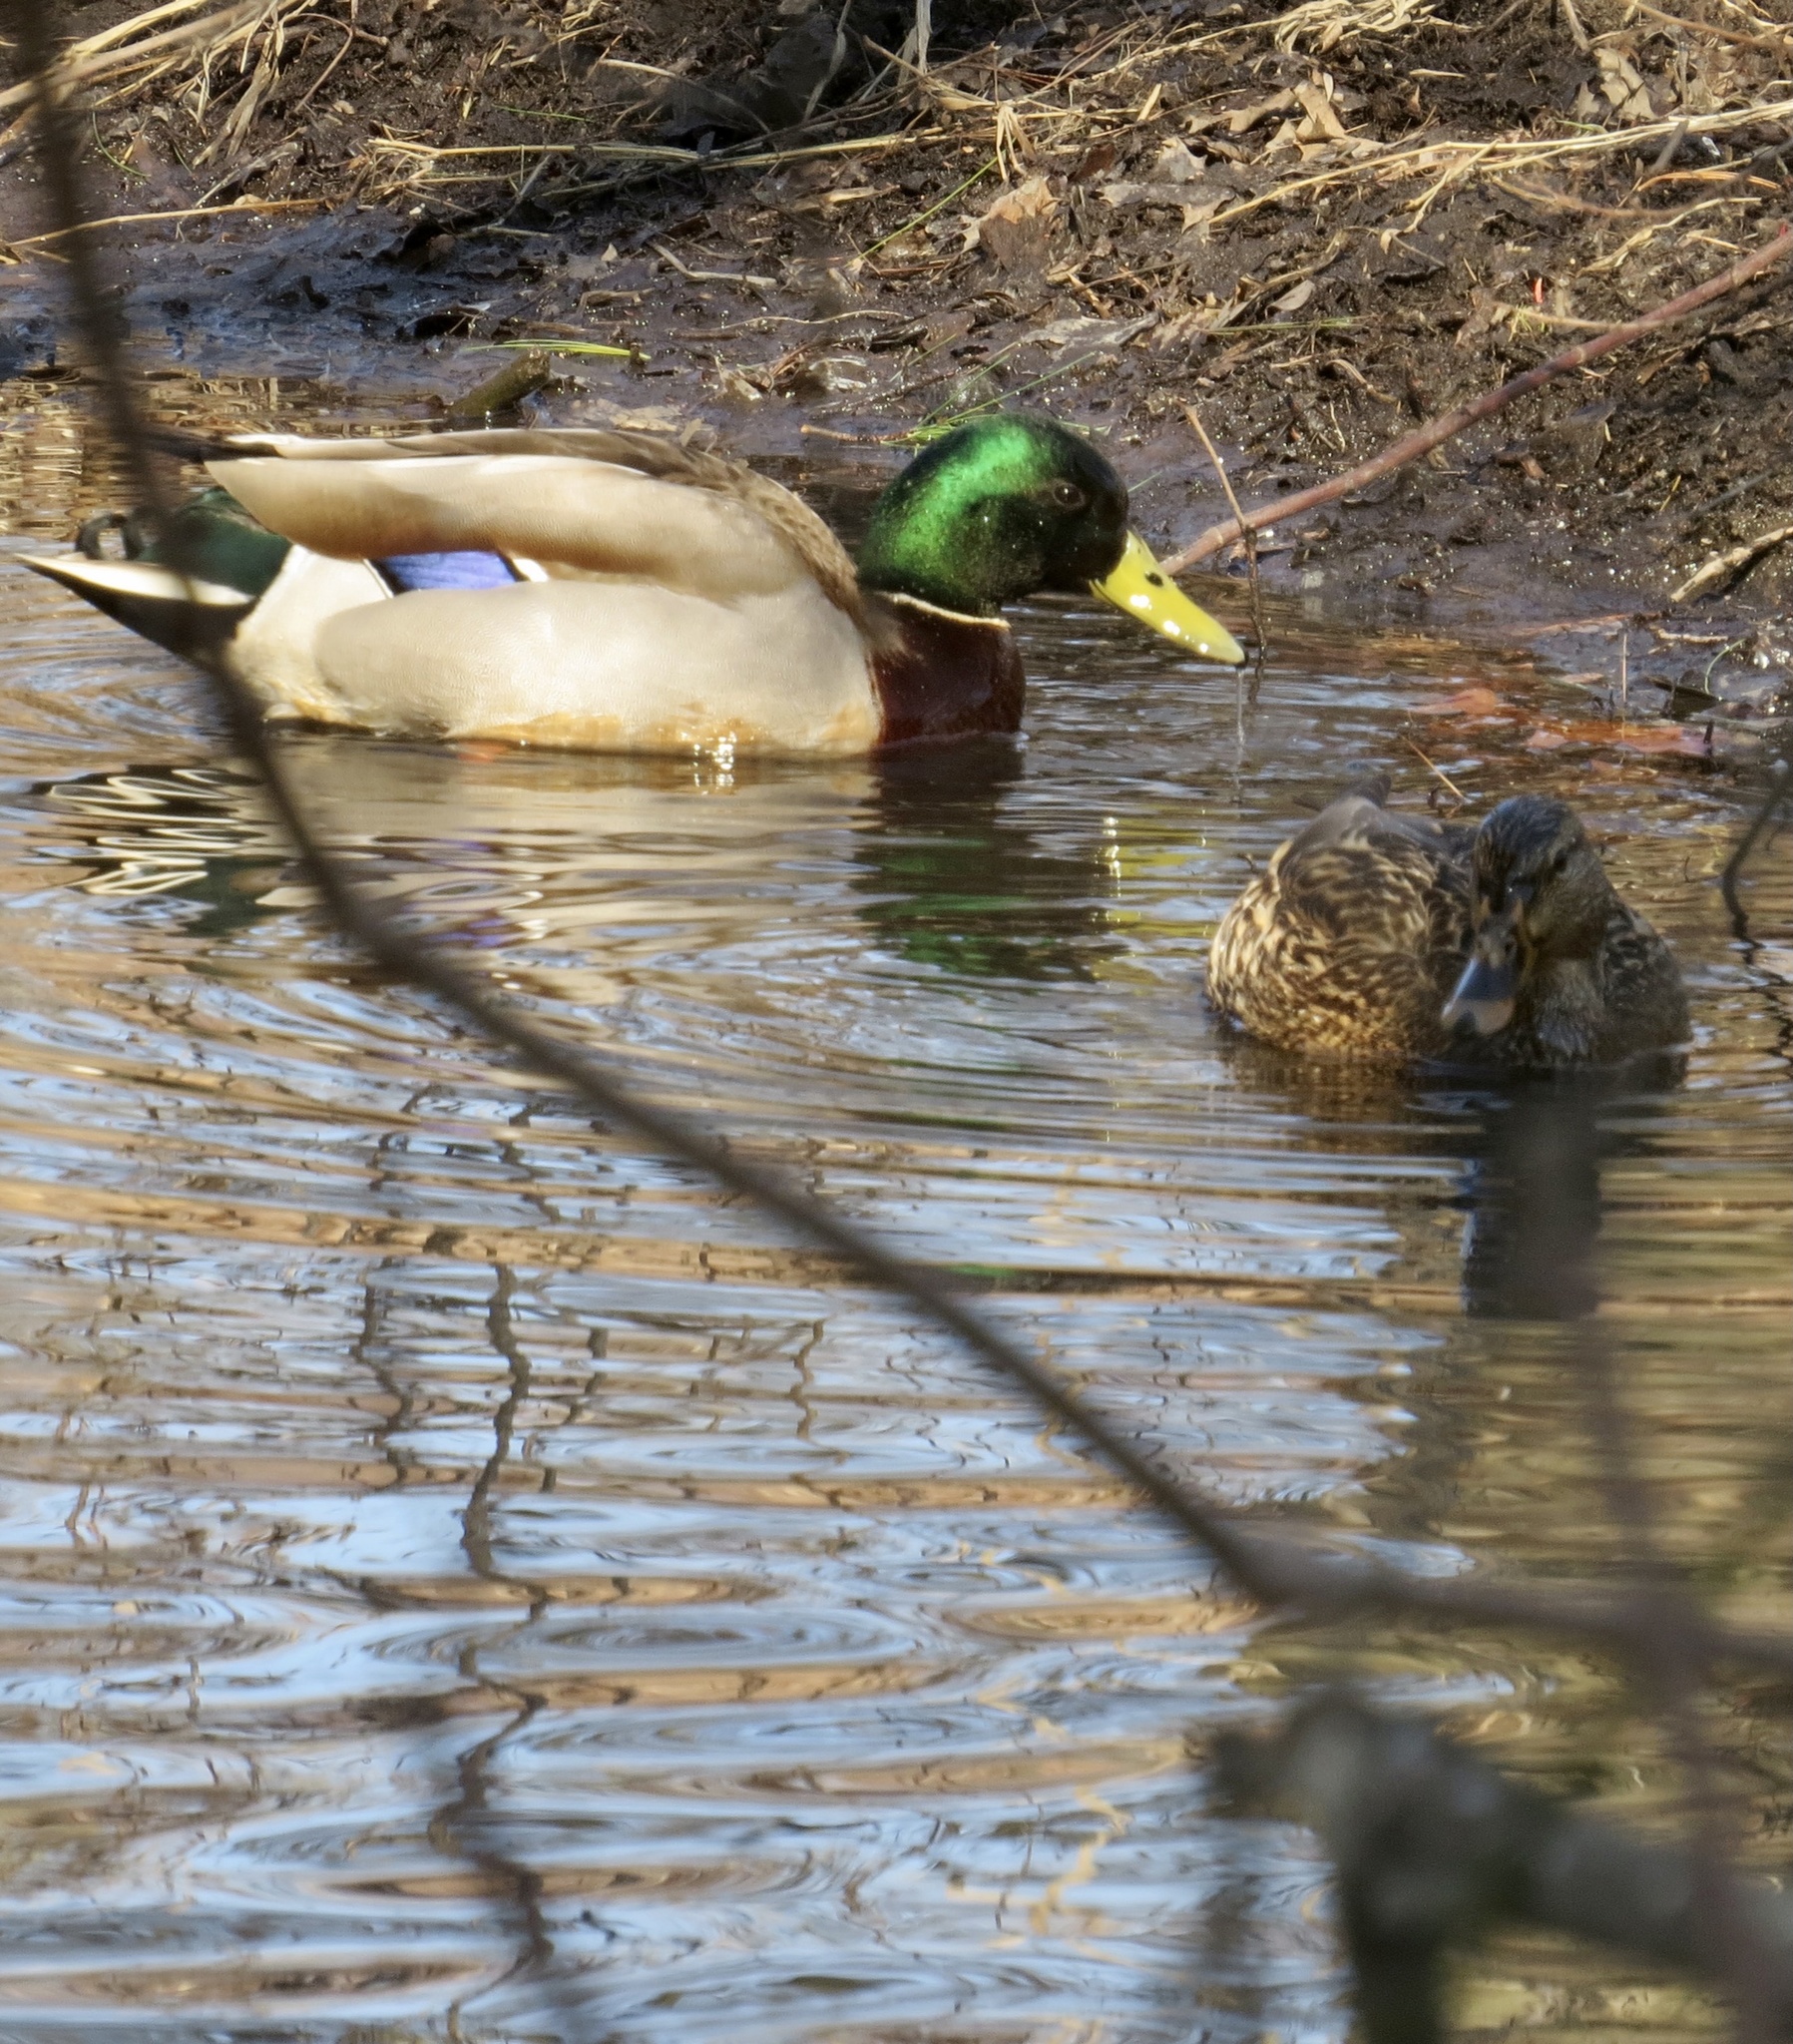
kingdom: Animalia
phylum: Chordata
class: Aves
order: Anseriformes
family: Anatidae
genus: Anas
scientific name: Anas platyrhynchos
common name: Mallard
